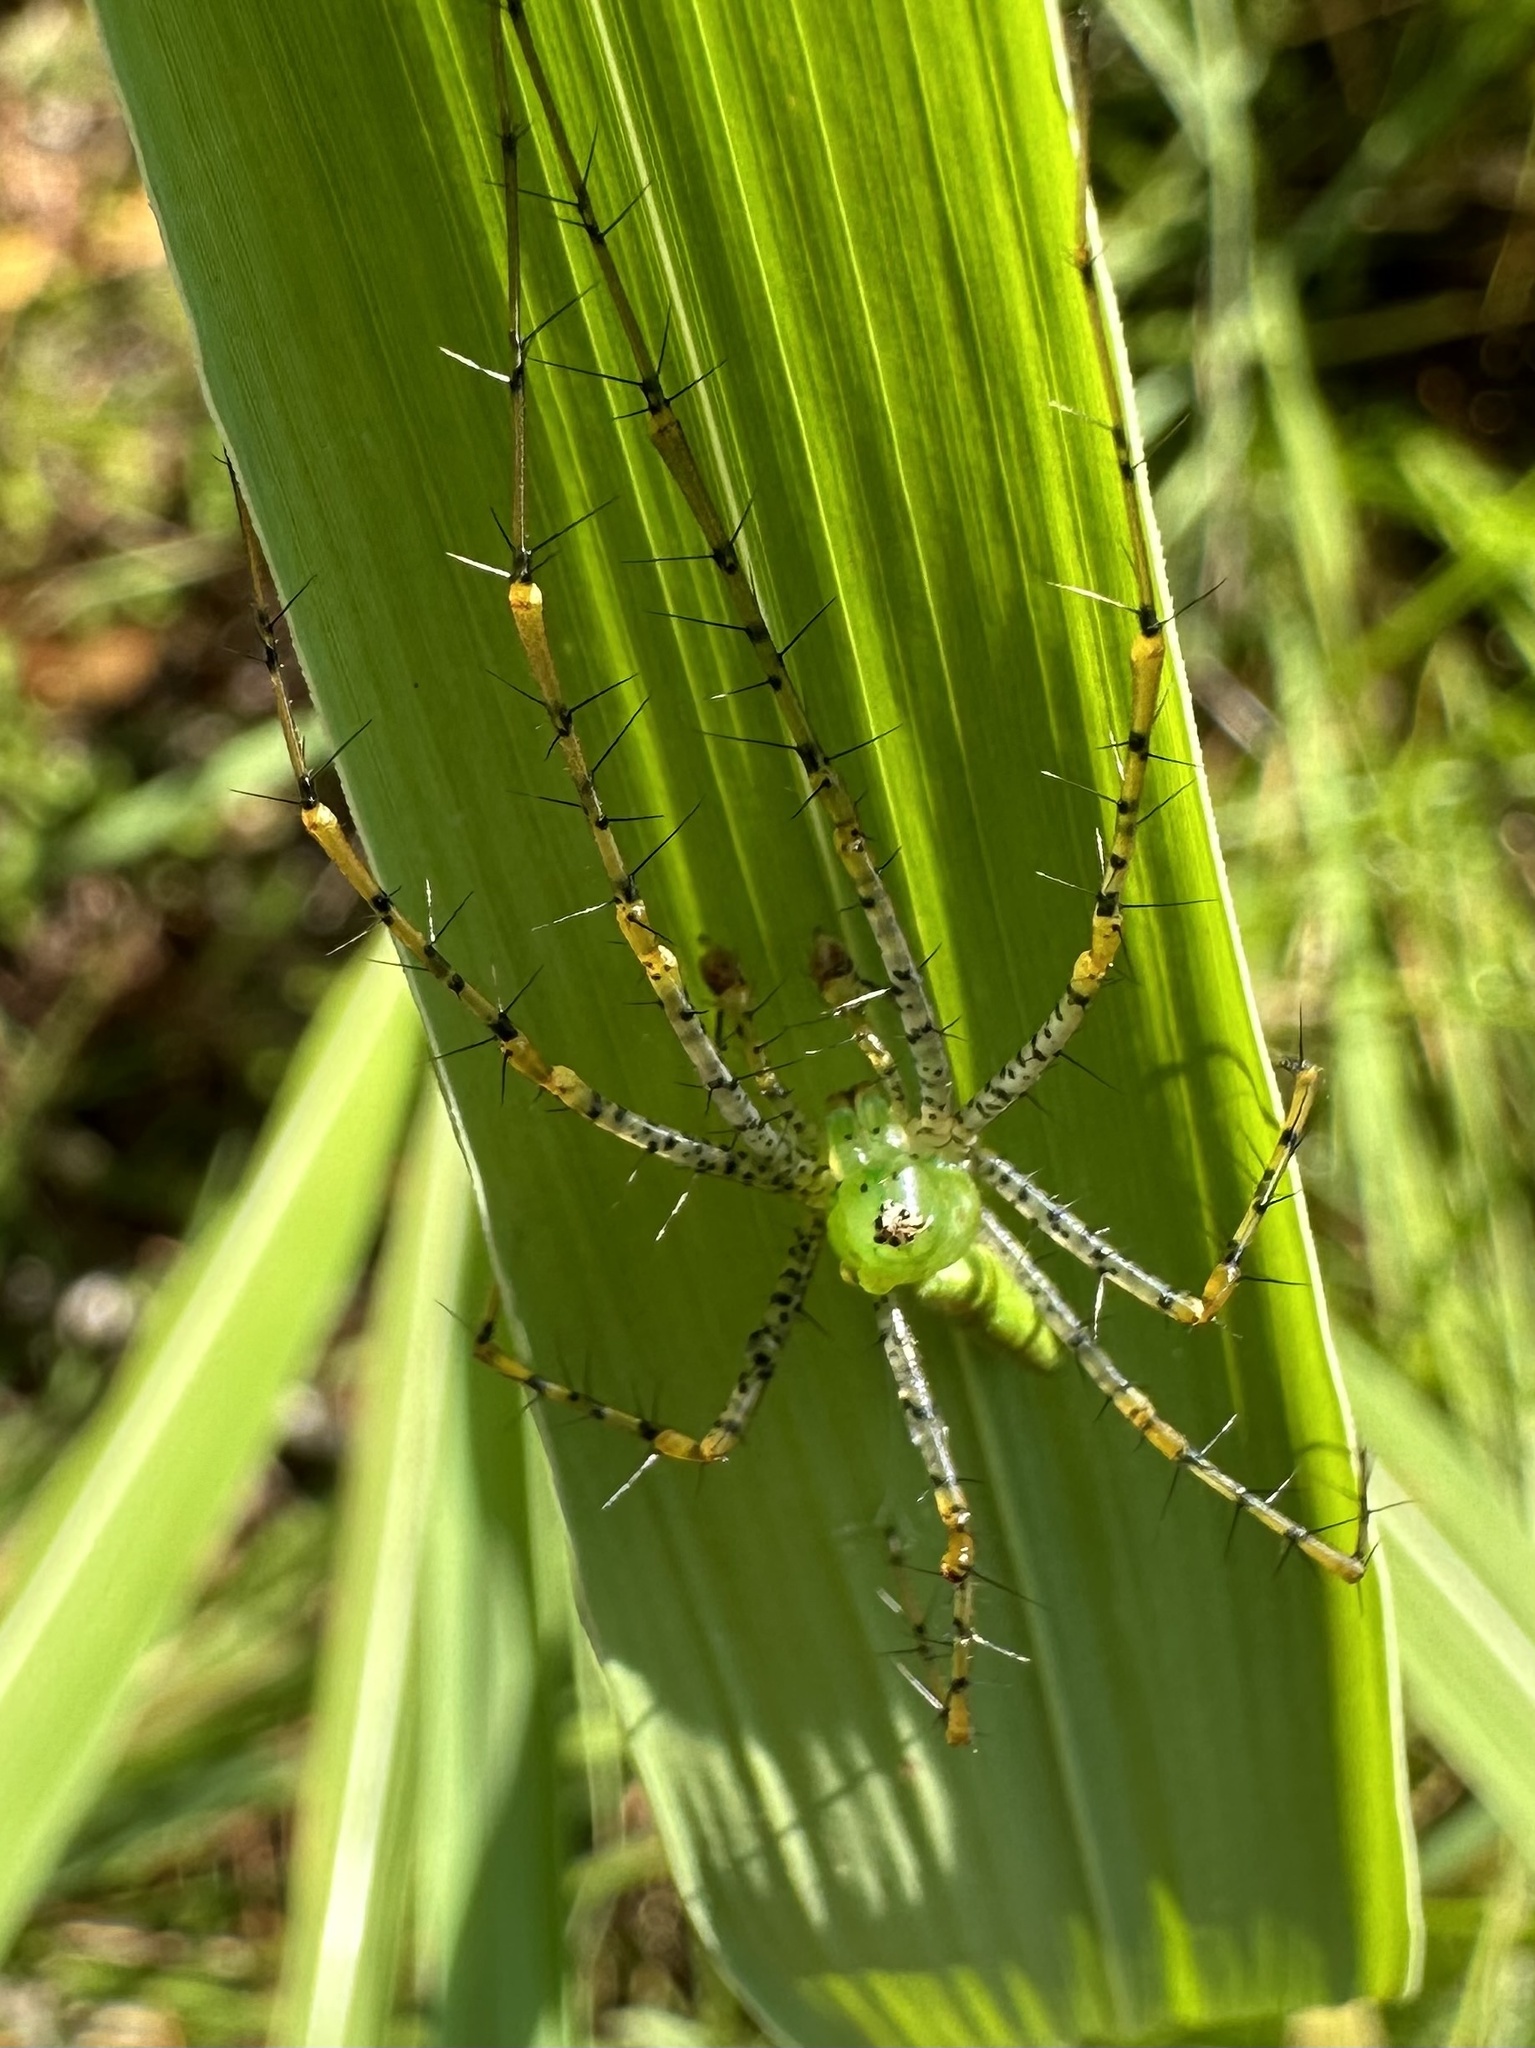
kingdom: Animalia
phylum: Arthropoda
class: Arachnida
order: Araneae
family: Oxyopidae
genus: Peucetia
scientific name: Peucetia viridans
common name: Lynx spiders
